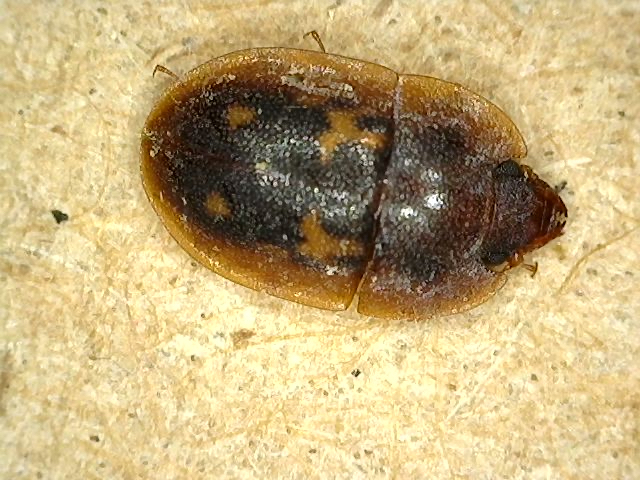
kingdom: Animalia
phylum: Arthropoda
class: Insecta
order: Coleoptera
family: Nitidulidae
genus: Prometopia
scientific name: Prometopia sexmaculata
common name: Six-spotted sap-feeding beetle
